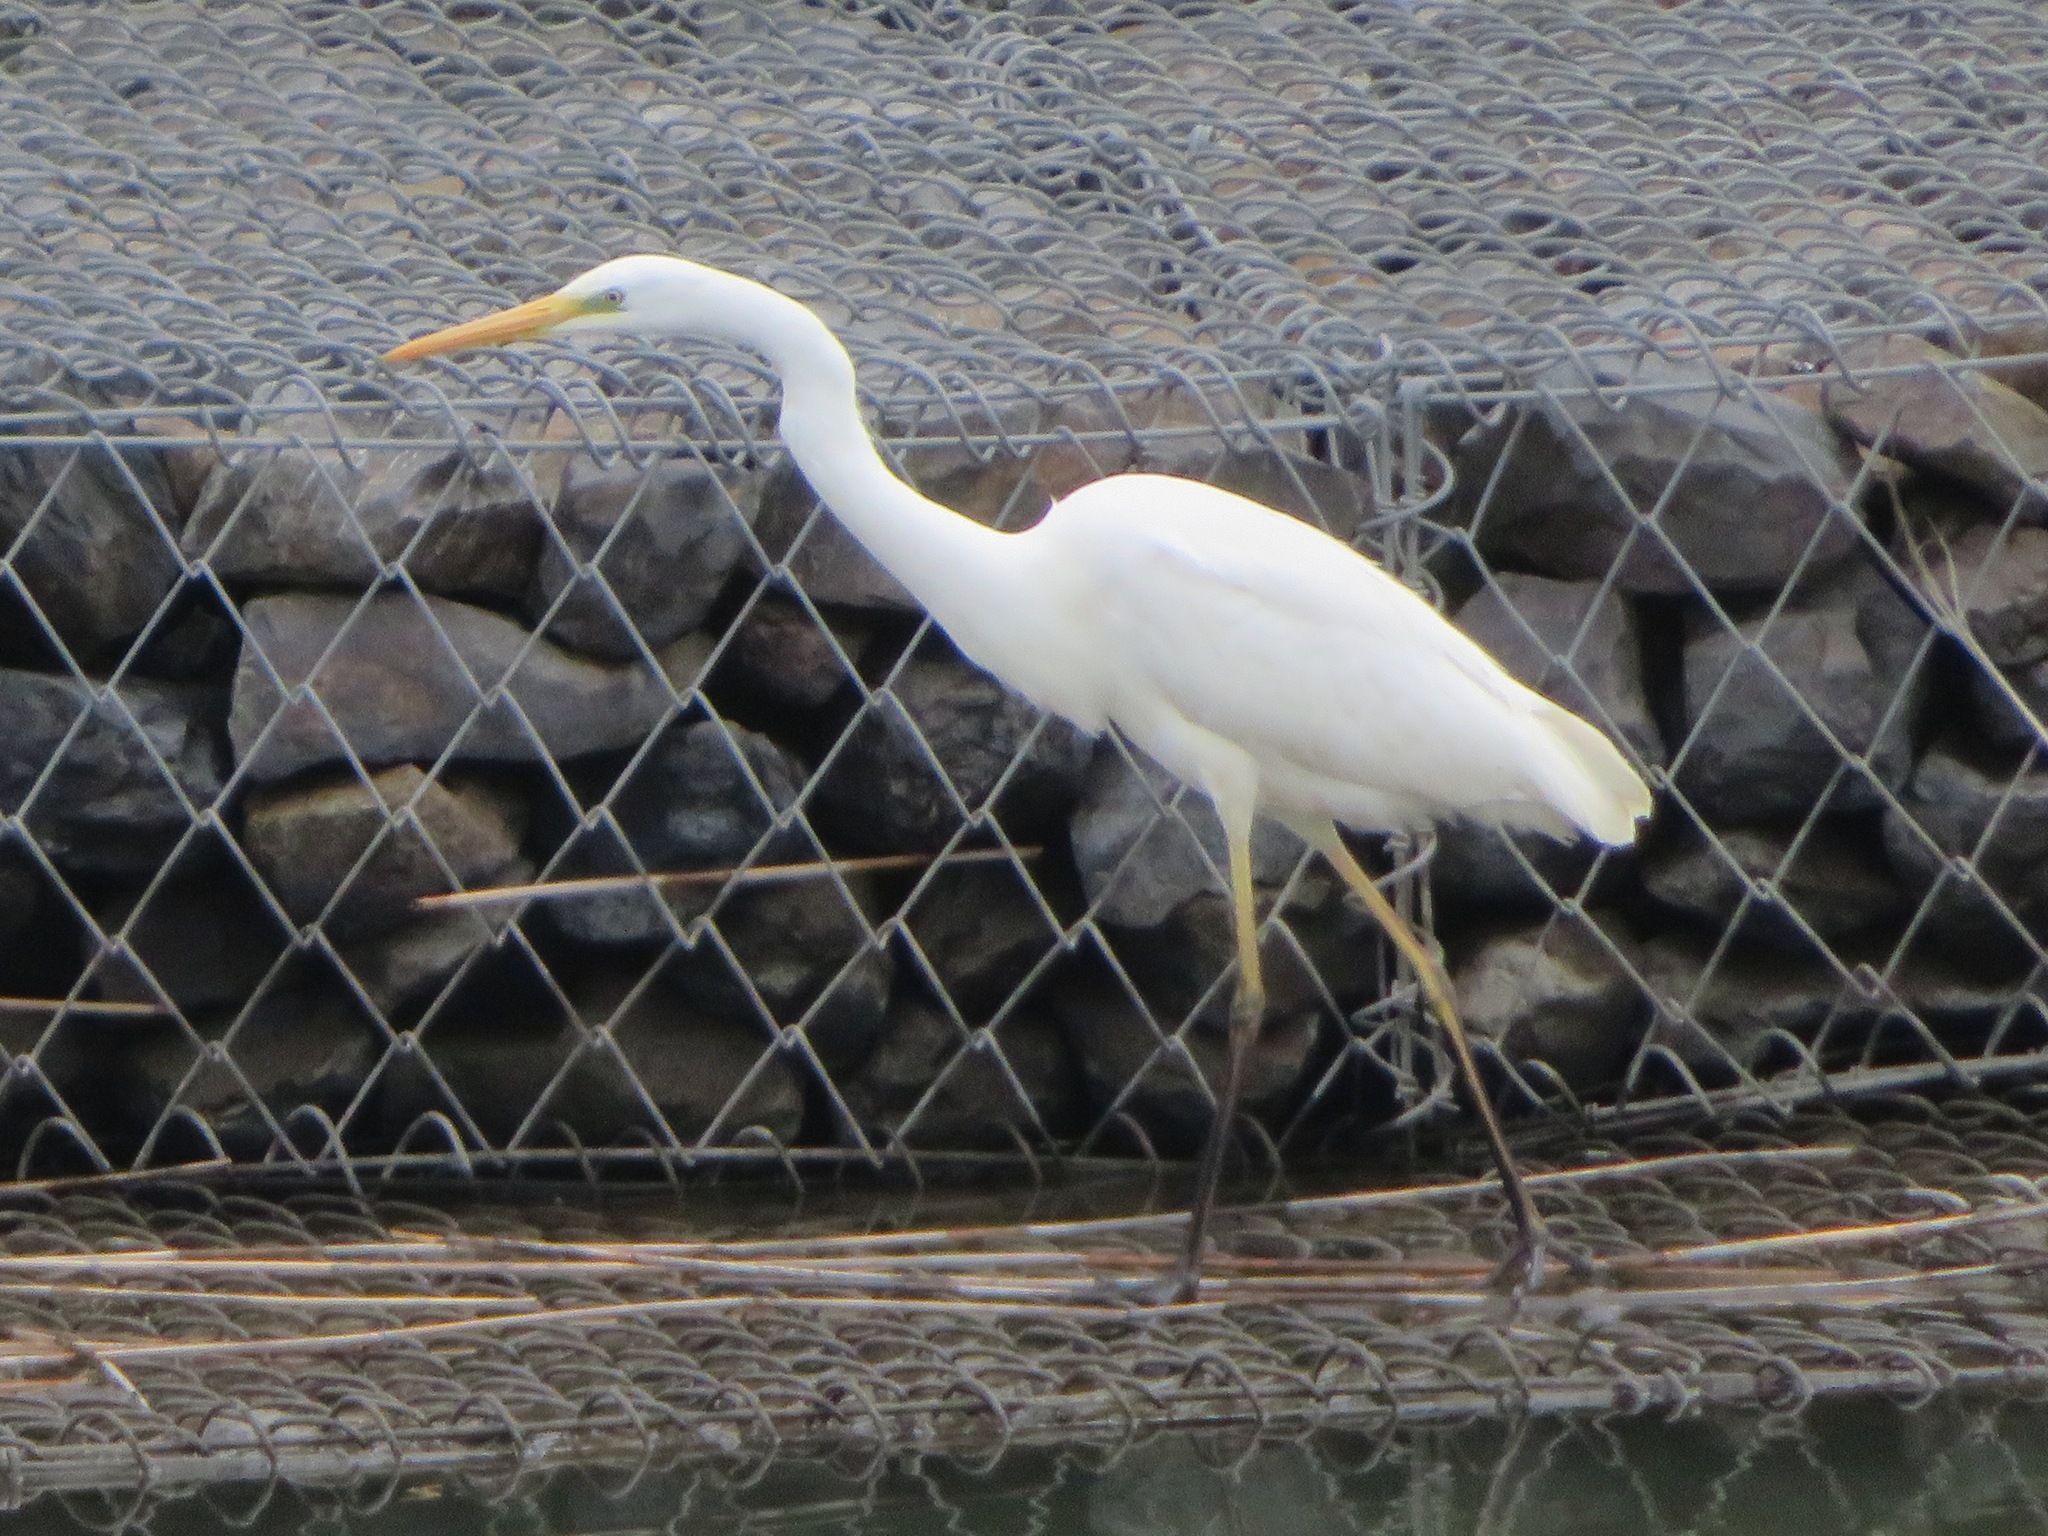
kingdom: Animalia
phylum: Chordata
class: Aves
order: Pelecaniformes
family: Ardeidae
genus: Ardea
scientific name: Ardea alba
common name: Great egret
